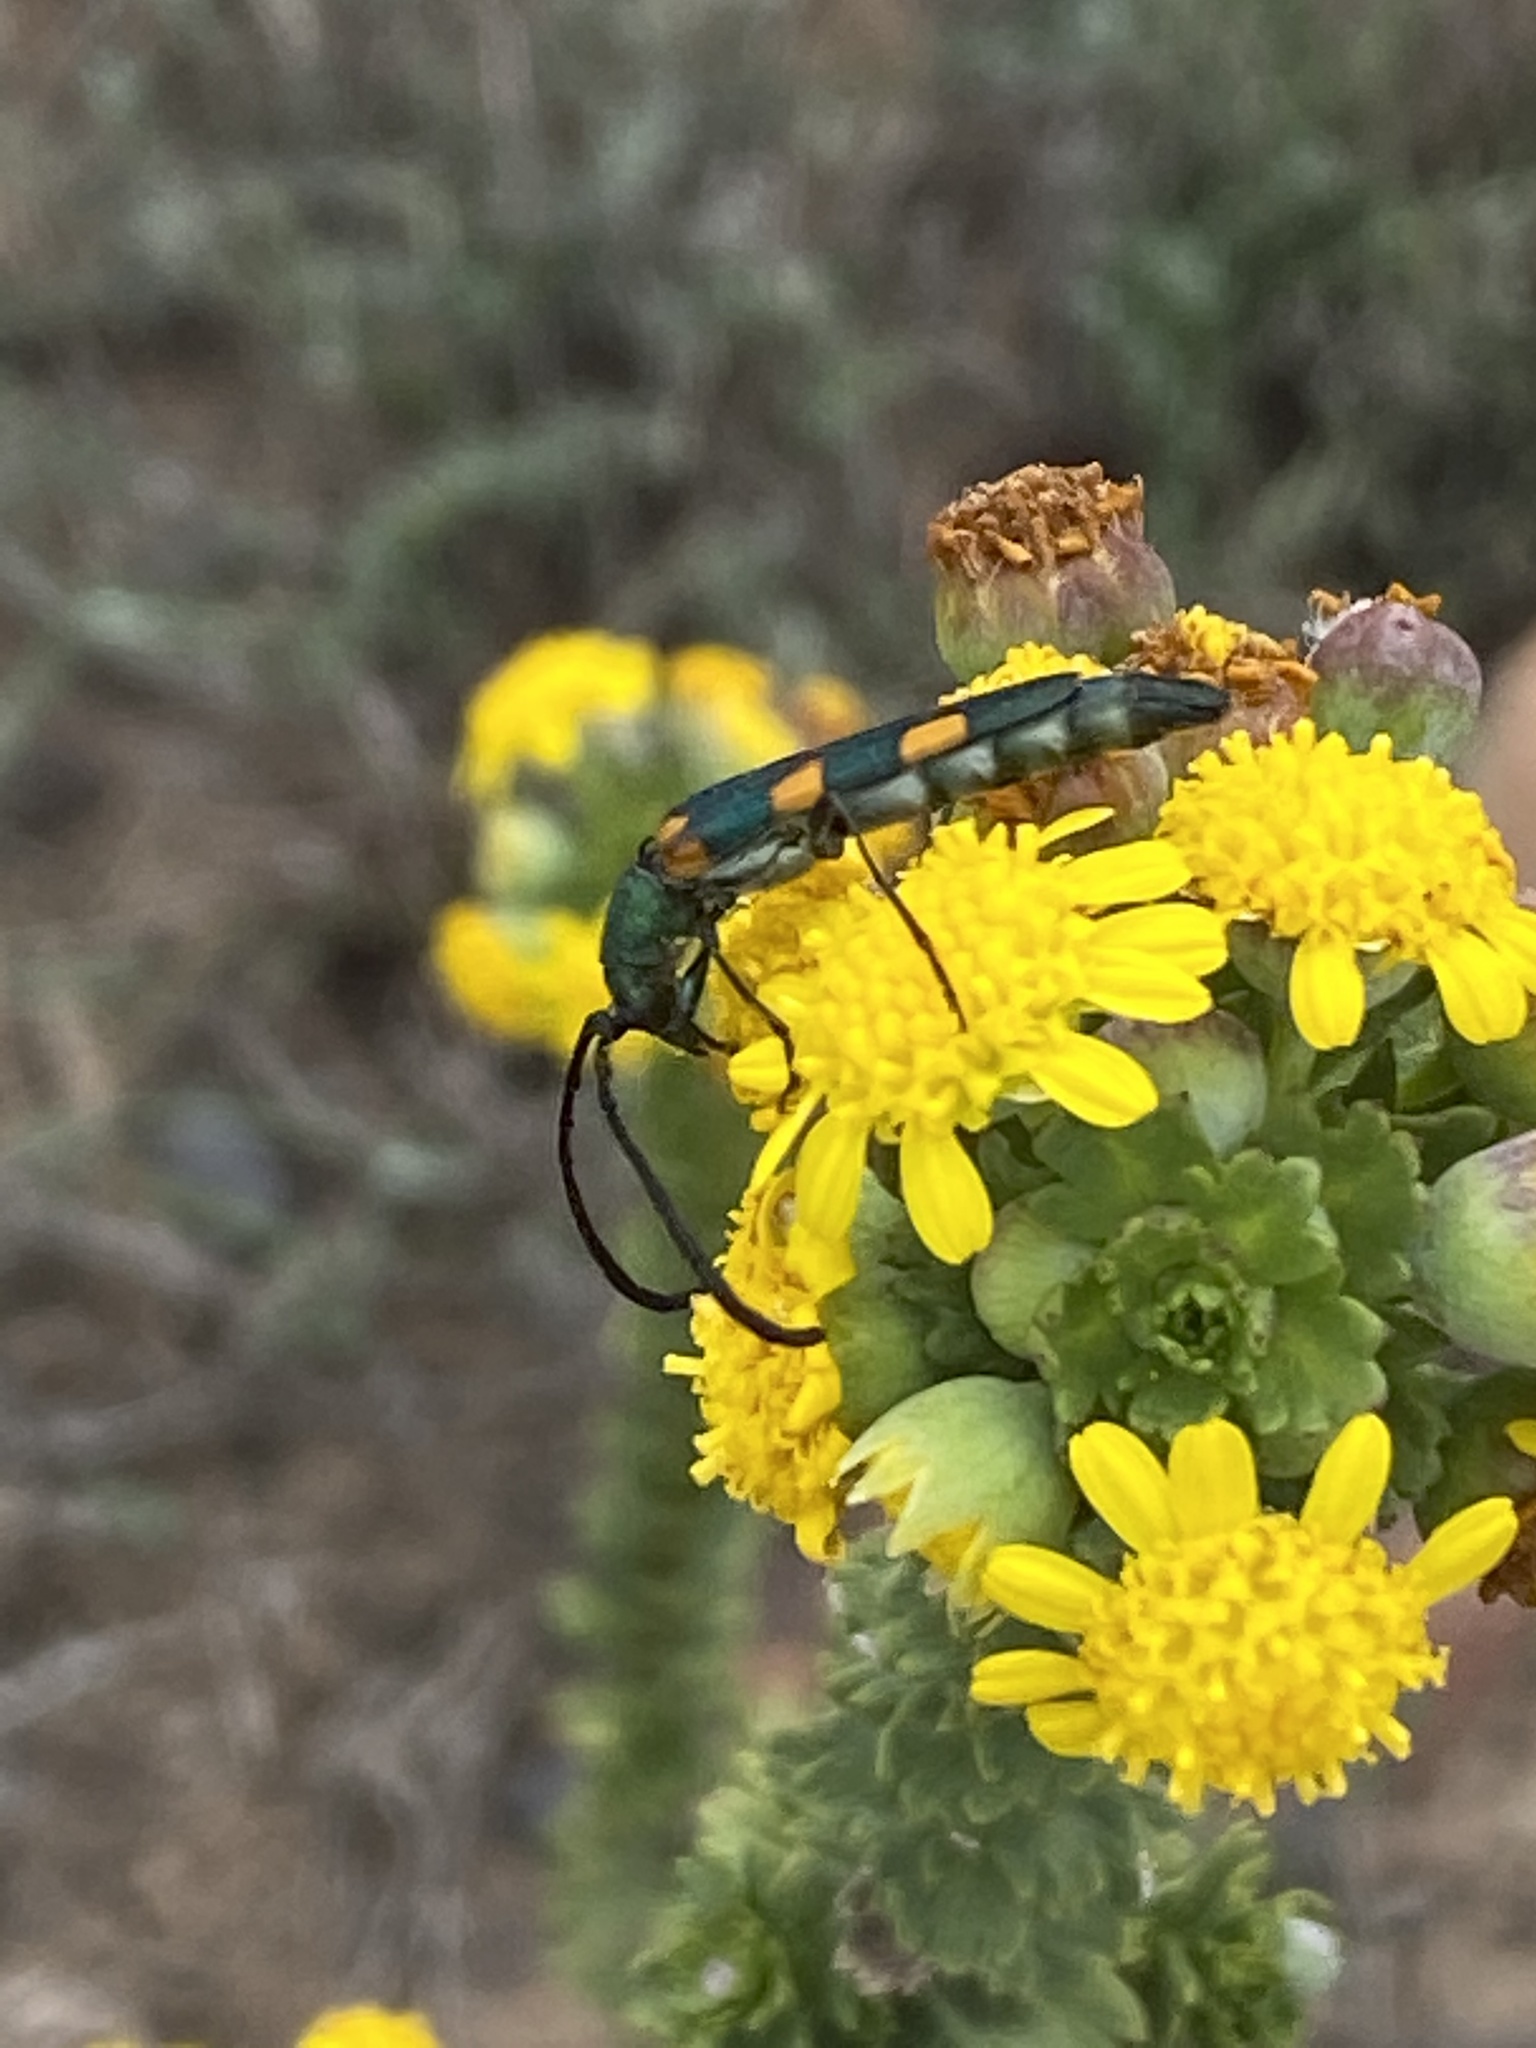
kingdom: Animalia
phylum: Arthropoda
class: Insecta
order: Coleoptera
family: Cerambycidae
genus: Anubis
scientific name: Anubis hexastictus
